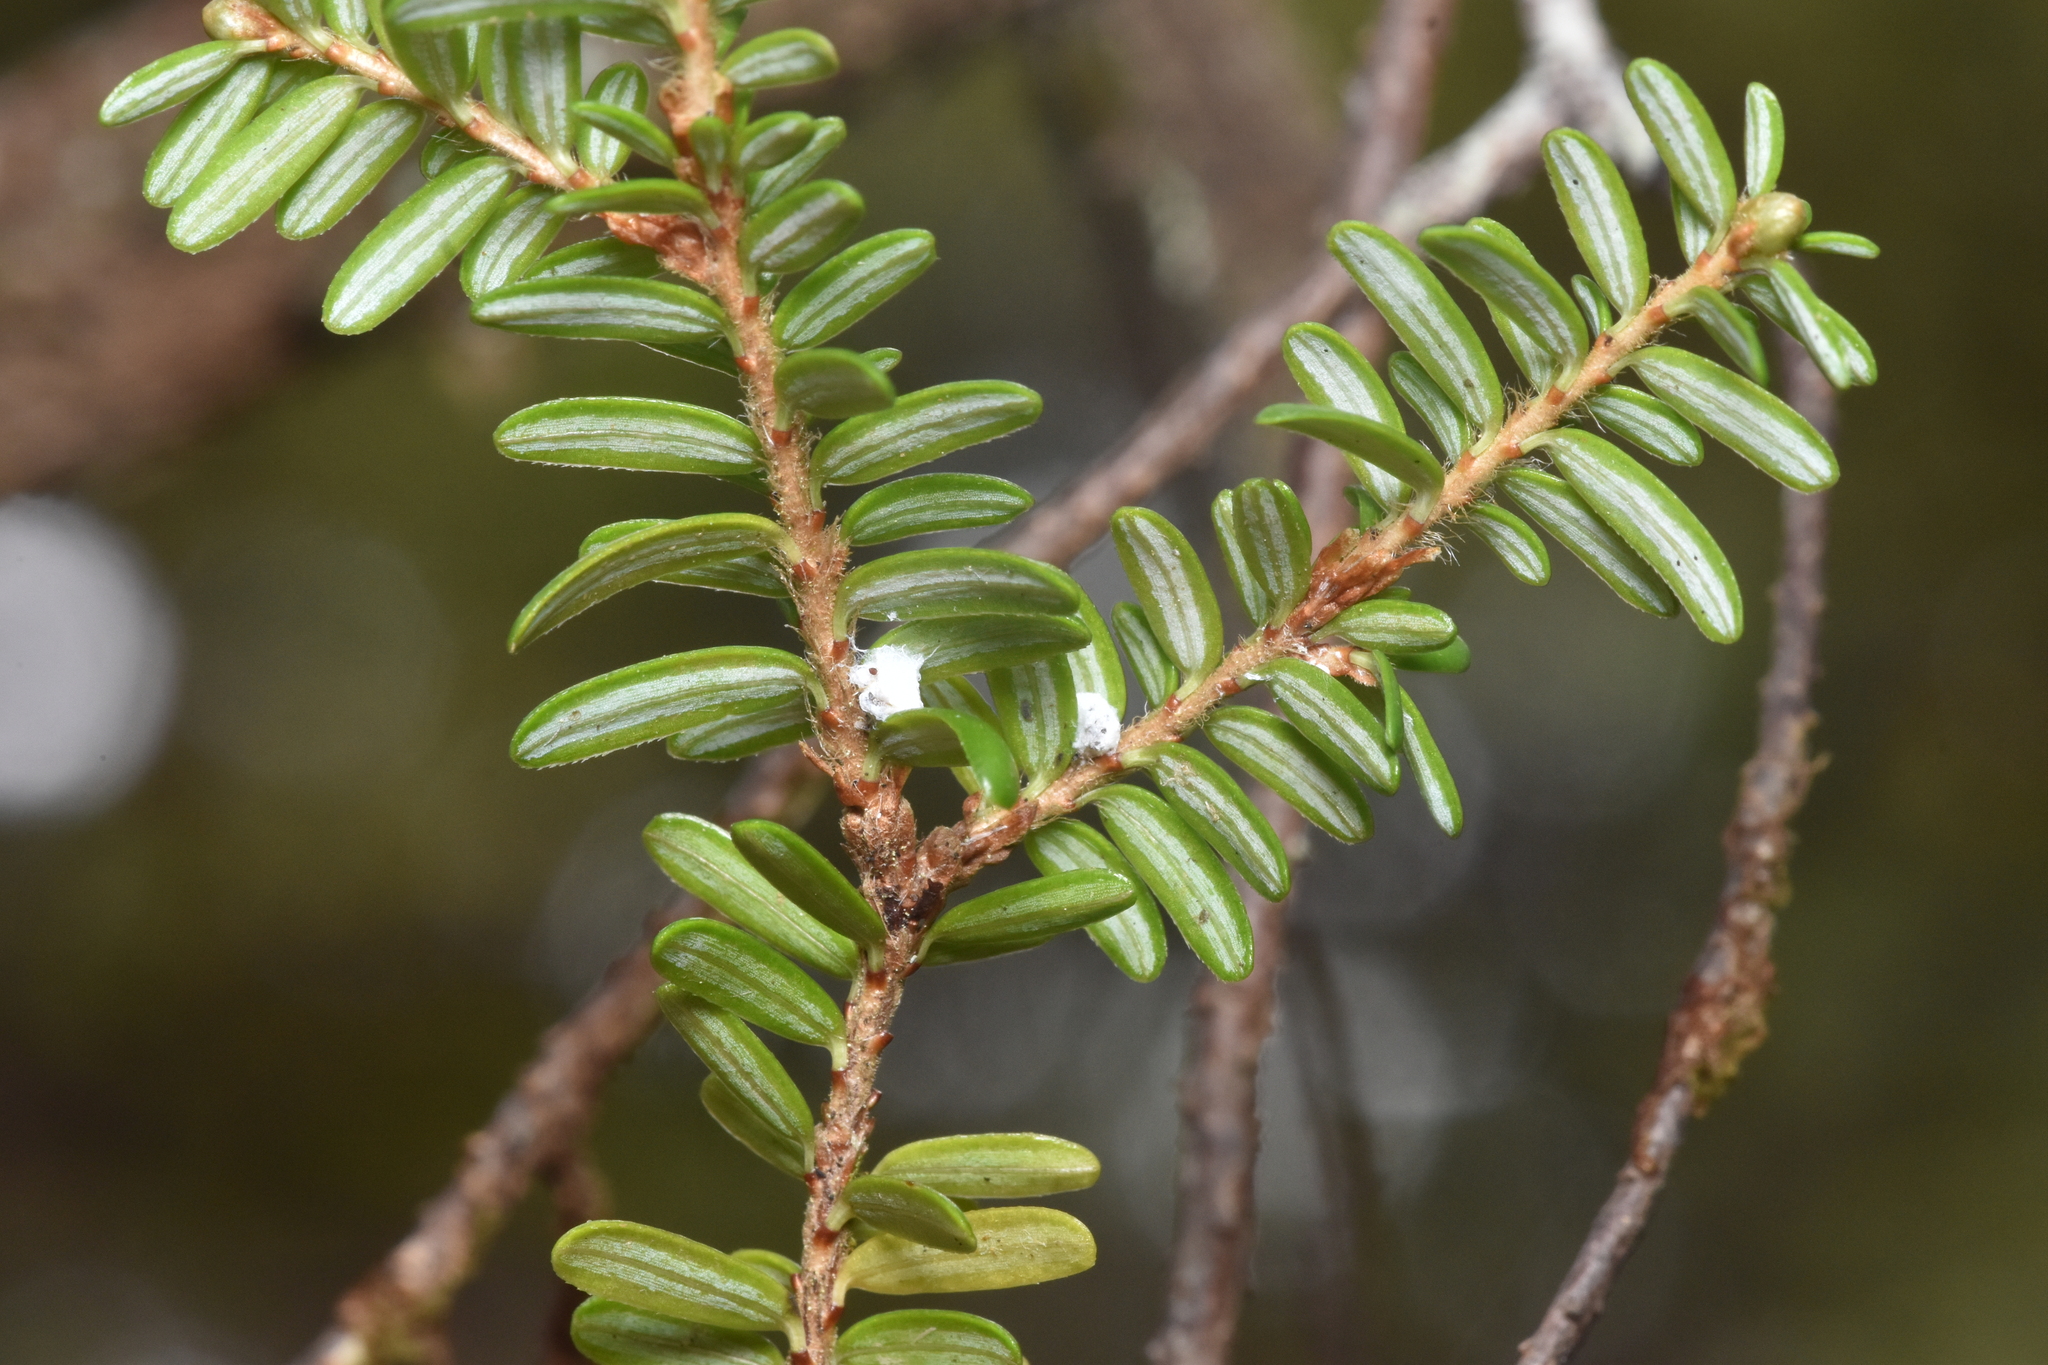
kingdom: Animalia
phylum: Arthropoda
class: Insecta
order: Hemiptera
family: Adelgidae
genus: Adelges
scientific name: Adelges tsugae
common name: Hemlock woolly adelgid
